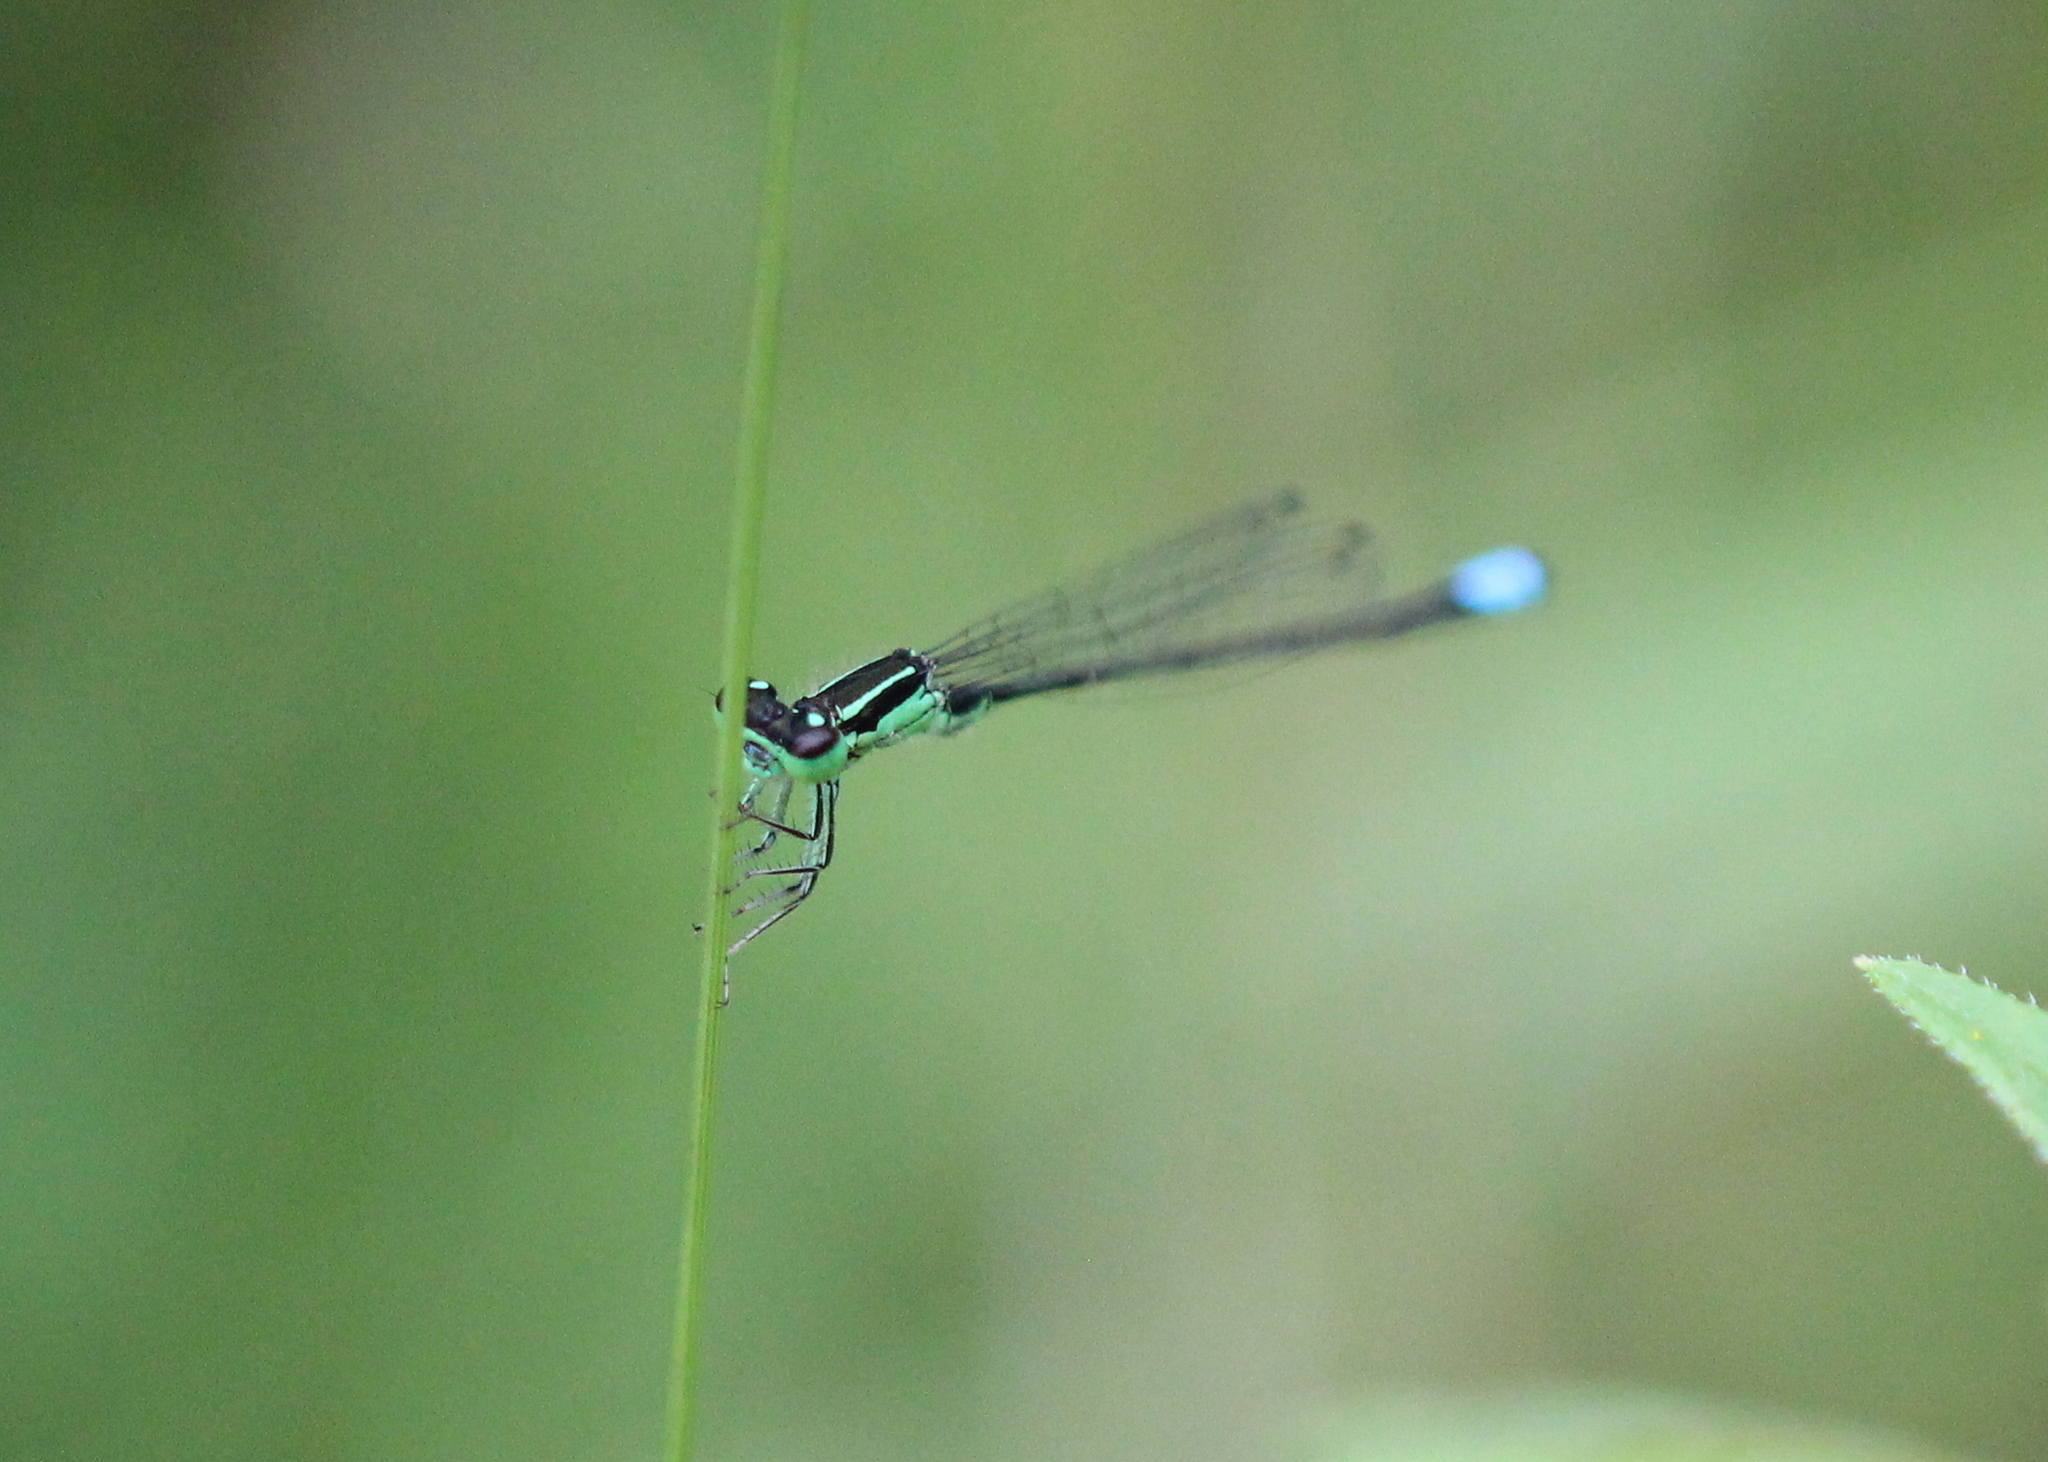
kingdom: Animalia
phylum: Arthropoda
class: Insecta
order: Odonata
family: Coenagrionidae
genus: Ischnura
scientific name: Ischnura verticalis
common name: Eastern forktail
